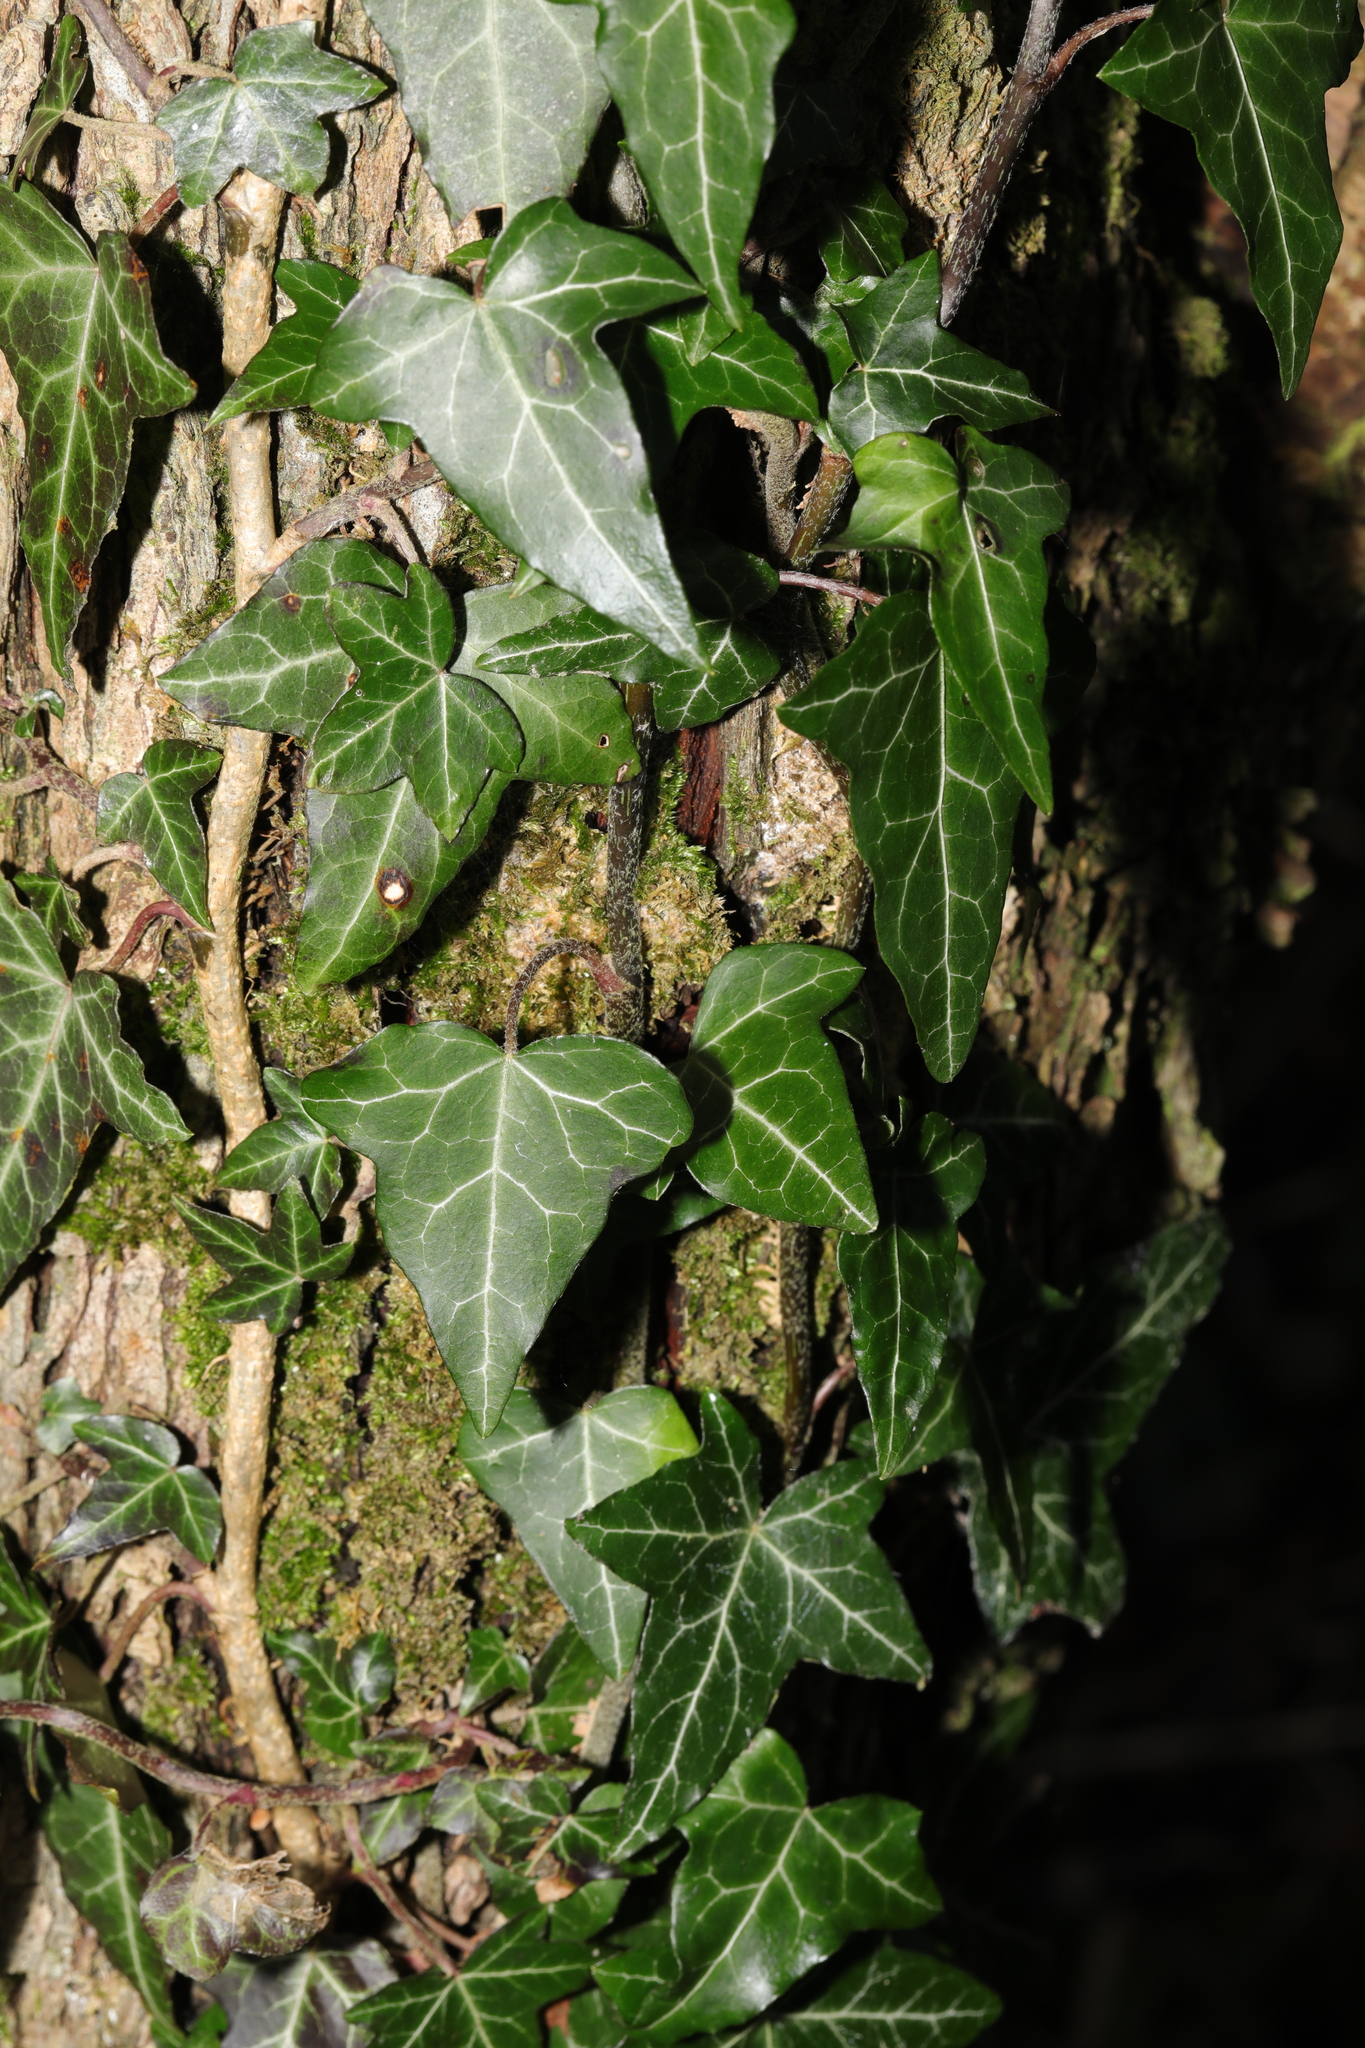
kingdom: Plantae
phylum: Tracheophyta
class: Magnoliopsida
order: Apiales
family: Araliaceae
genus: Hedera
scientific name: Hedera helix
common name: Ivy
